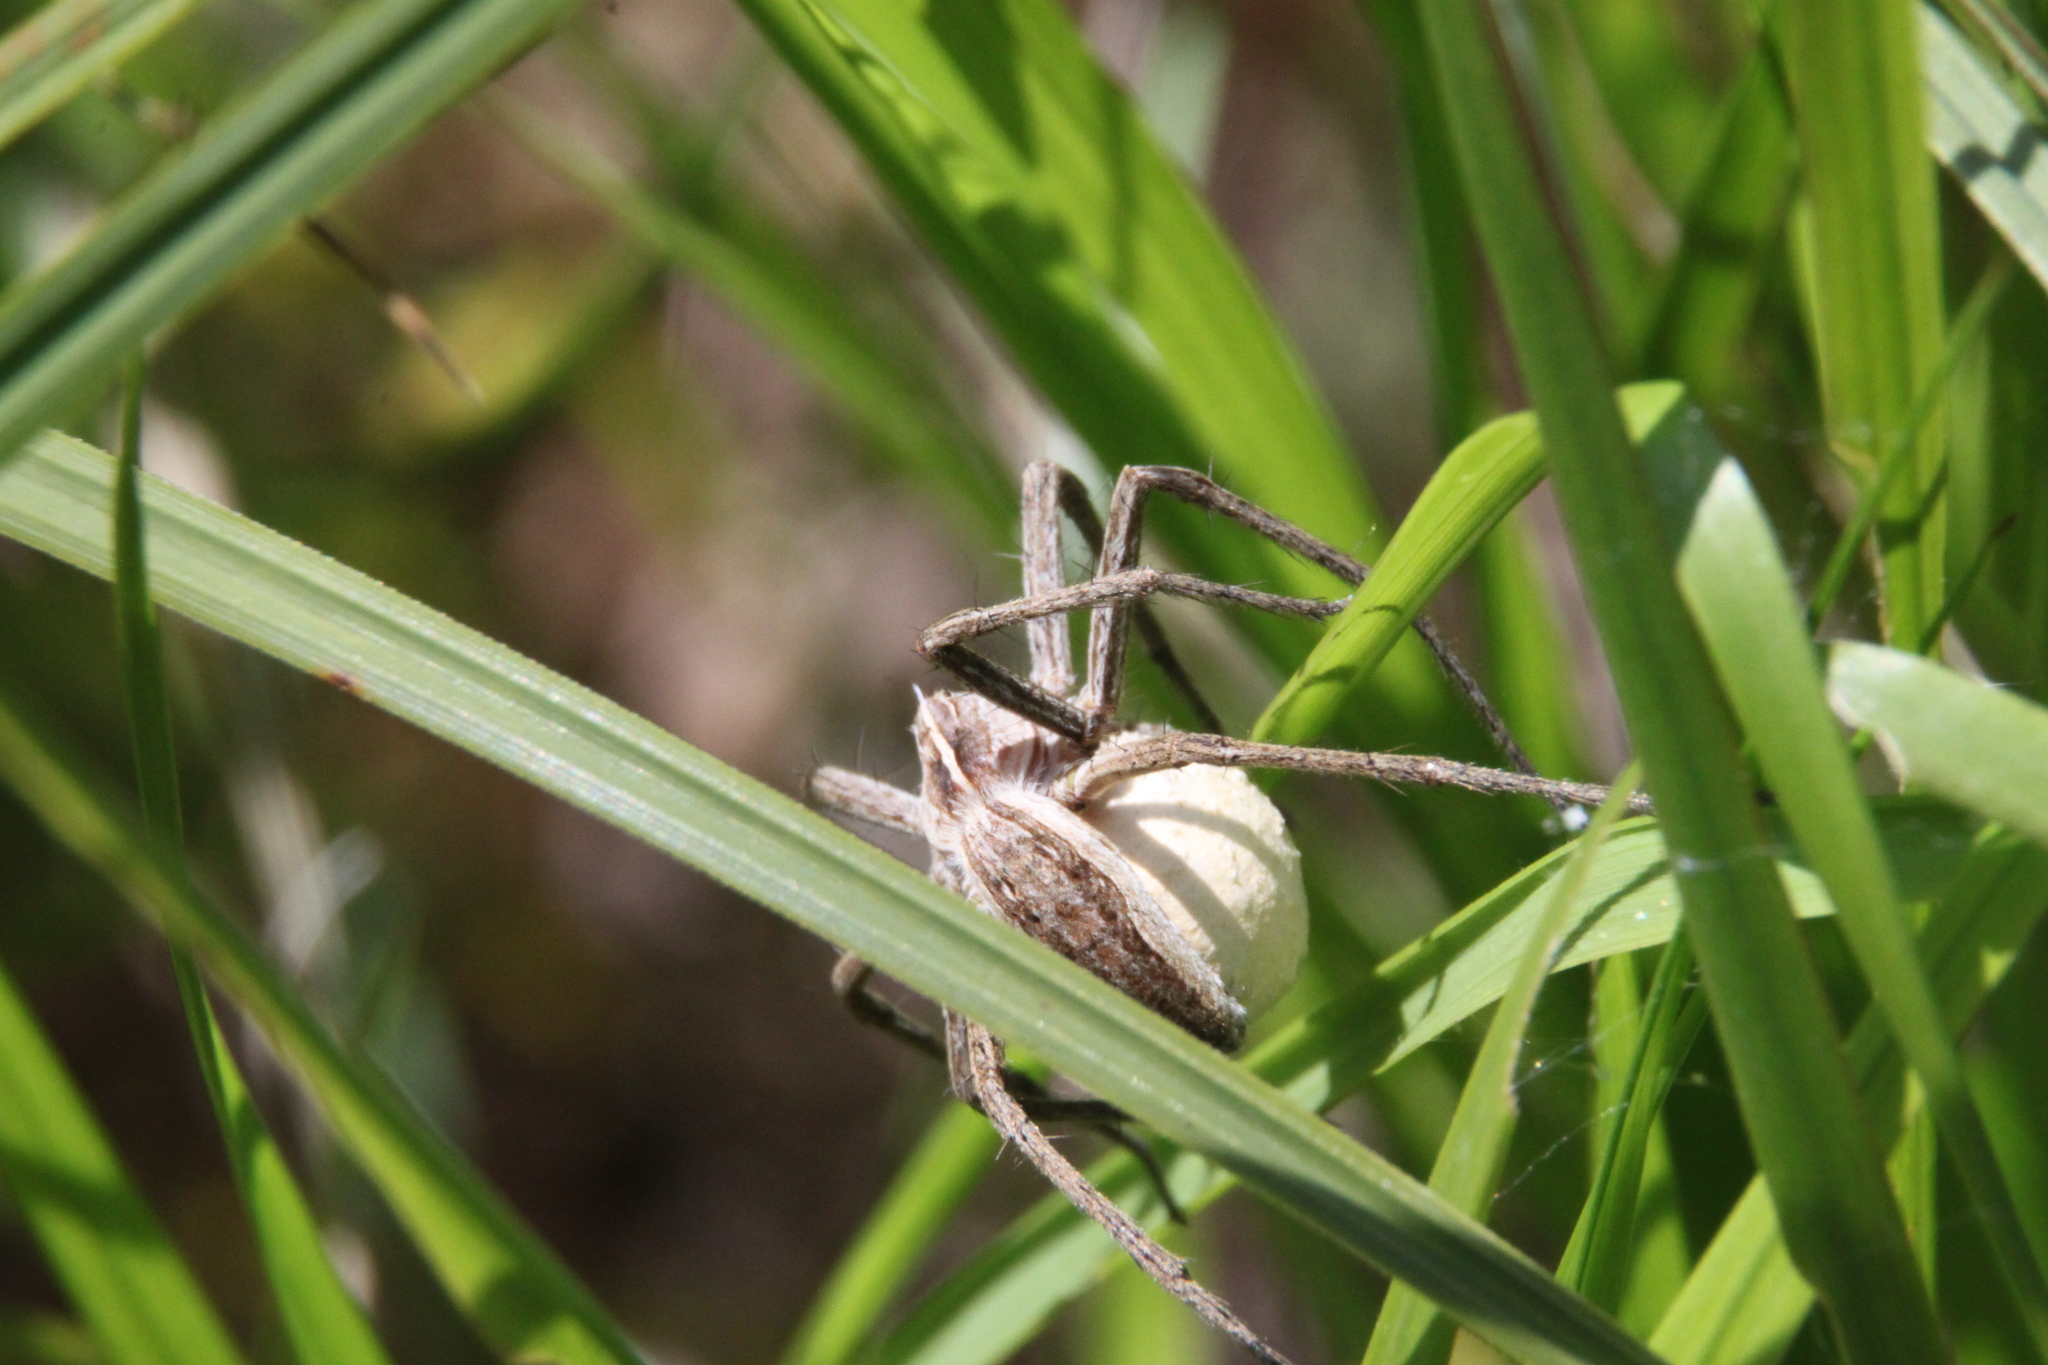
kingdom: Animalia
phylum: Arthropoda
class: Arachnida
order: Araneae
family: Pisauridae
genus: Pisaura
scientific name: Pisaura mirabilis
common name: Tent spider
